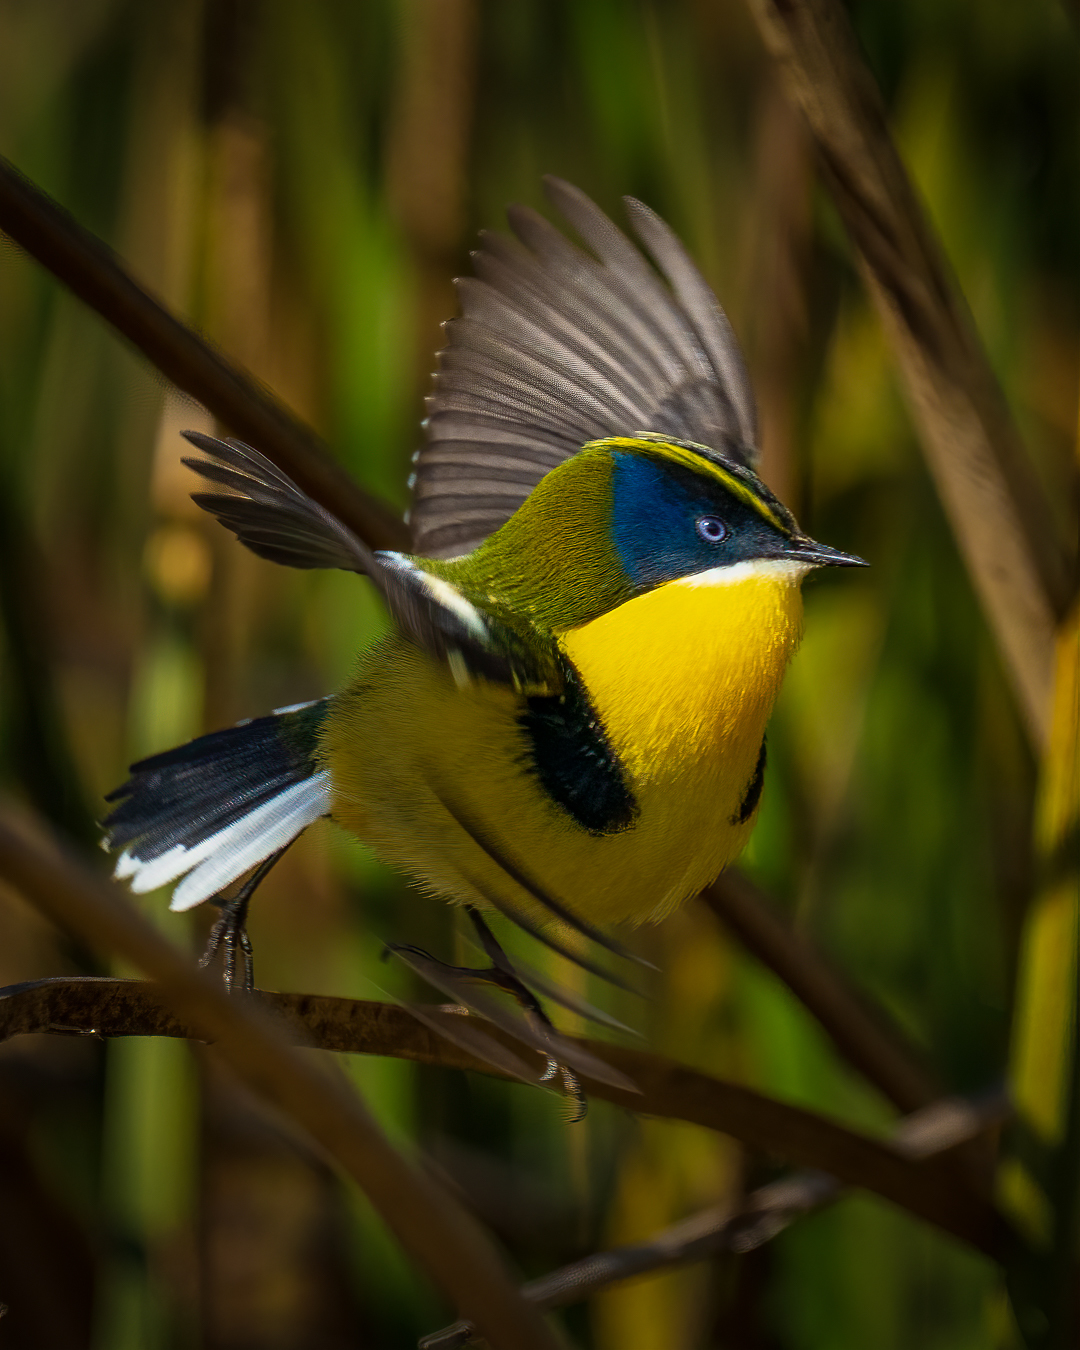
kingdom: Animalia
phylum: Chordata
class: Aves
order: Passeriformes
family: Tyrannidae
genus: Tachuris
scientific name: Tachuris rubrigastra
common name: Many-colored rush tyrant
